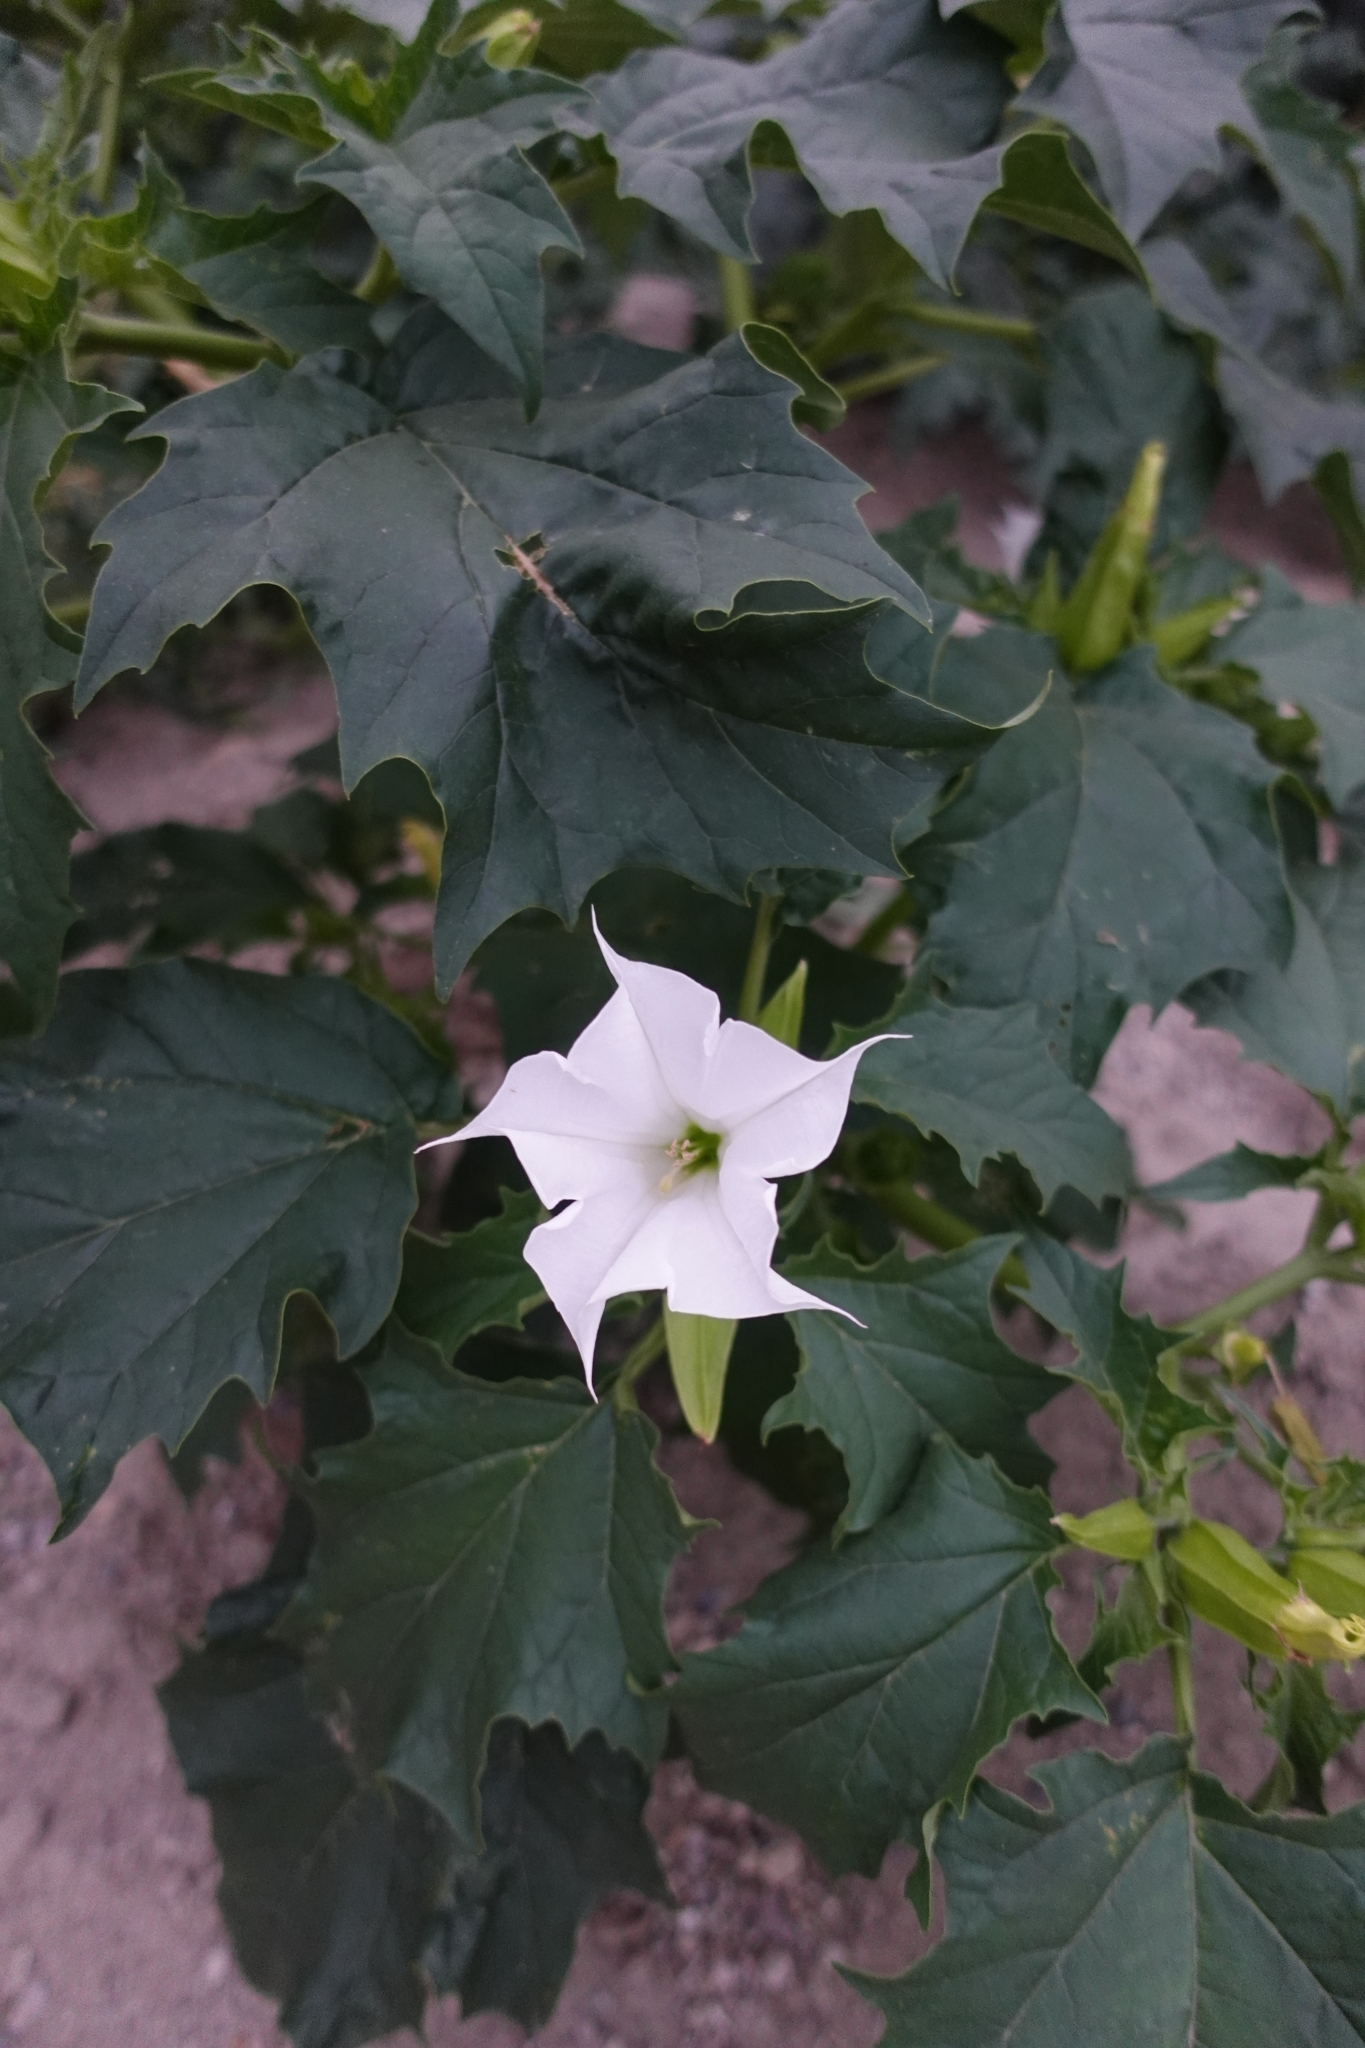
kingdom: Plantae
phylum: Tracheophyta
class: Magnoliopsida
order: Solanales
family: Solanaceae
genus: Datura
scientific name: Datura stramonium
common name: Thorn-apple
